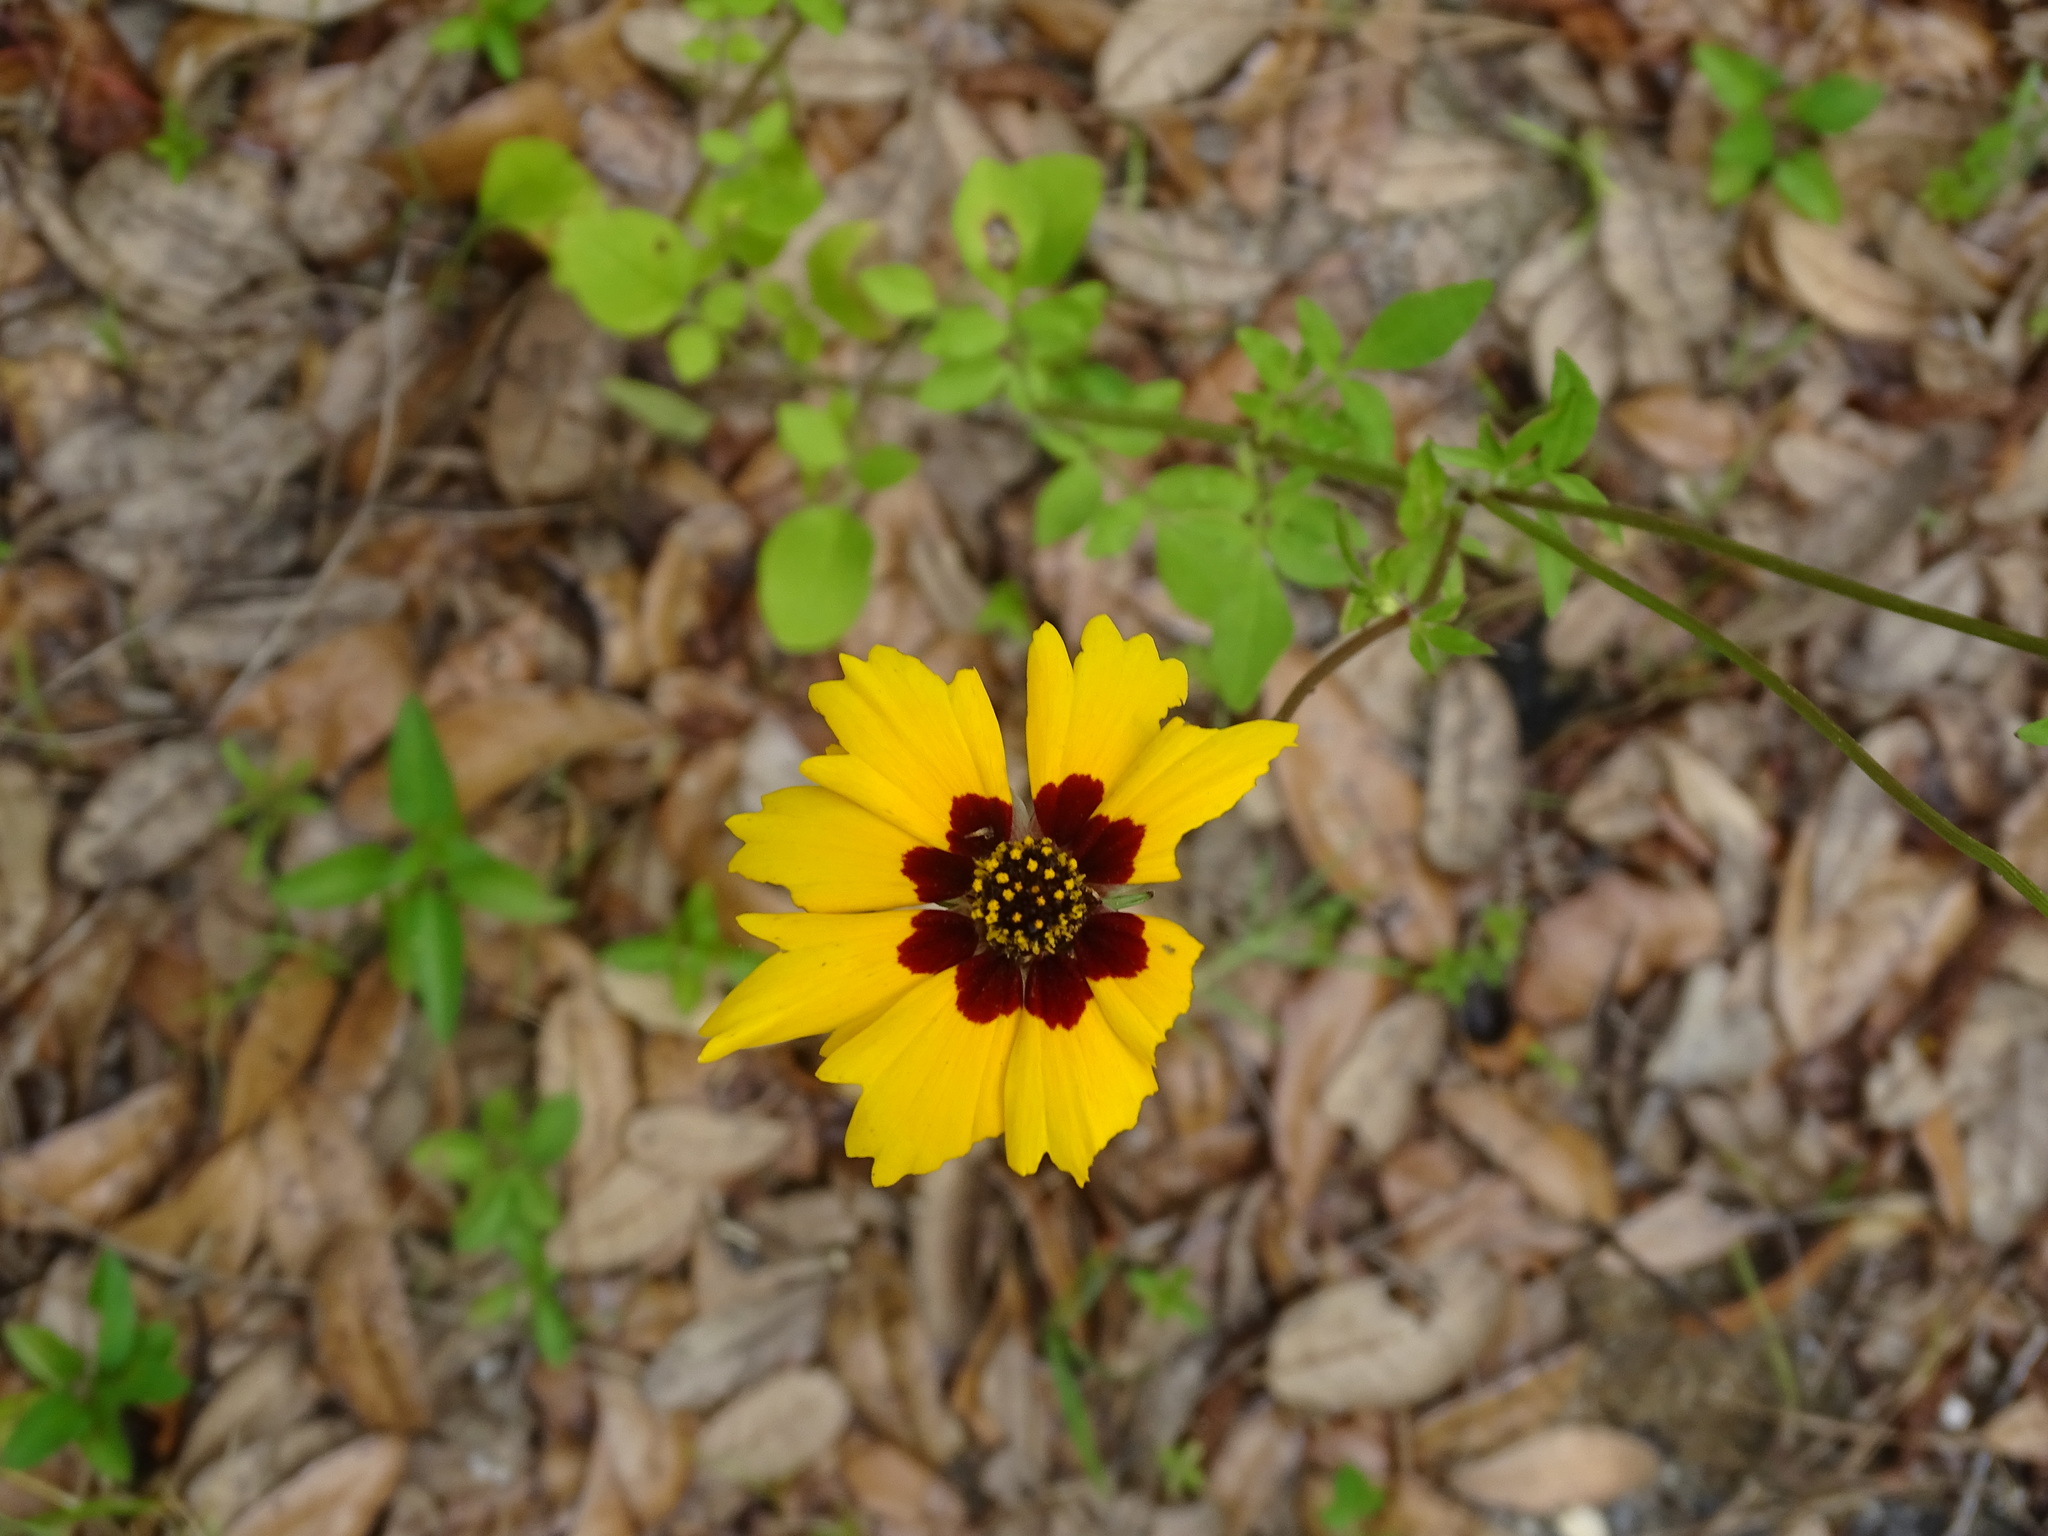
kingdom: Plantae
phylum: Tracheophyta
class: Magnoliopsida
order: Asterales
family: Asteraceae
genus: Coreopsis
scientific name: Coreopsis basalis
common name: Golden-mane coreopsis
